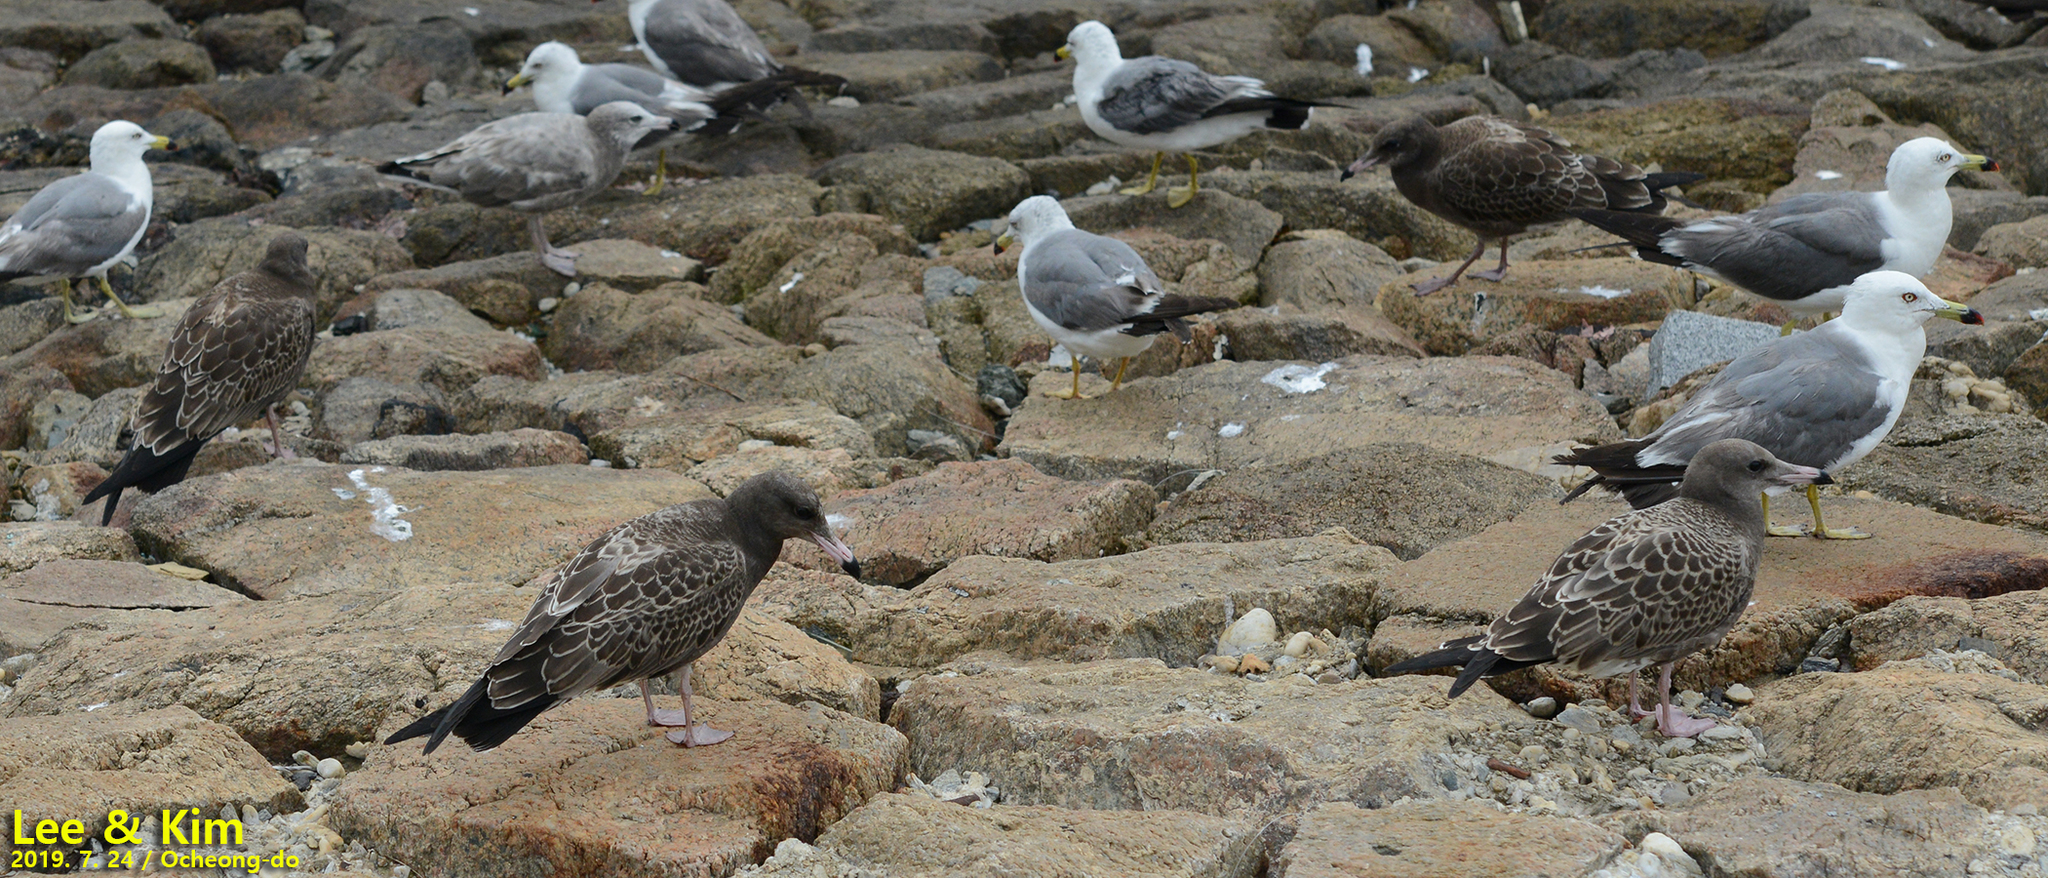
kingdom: Animalia
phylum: Chordata
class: Aves
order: Charadriiformes
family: Laridae
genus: Larus
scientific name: Larus crassirostris
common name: Black-tailed gull
